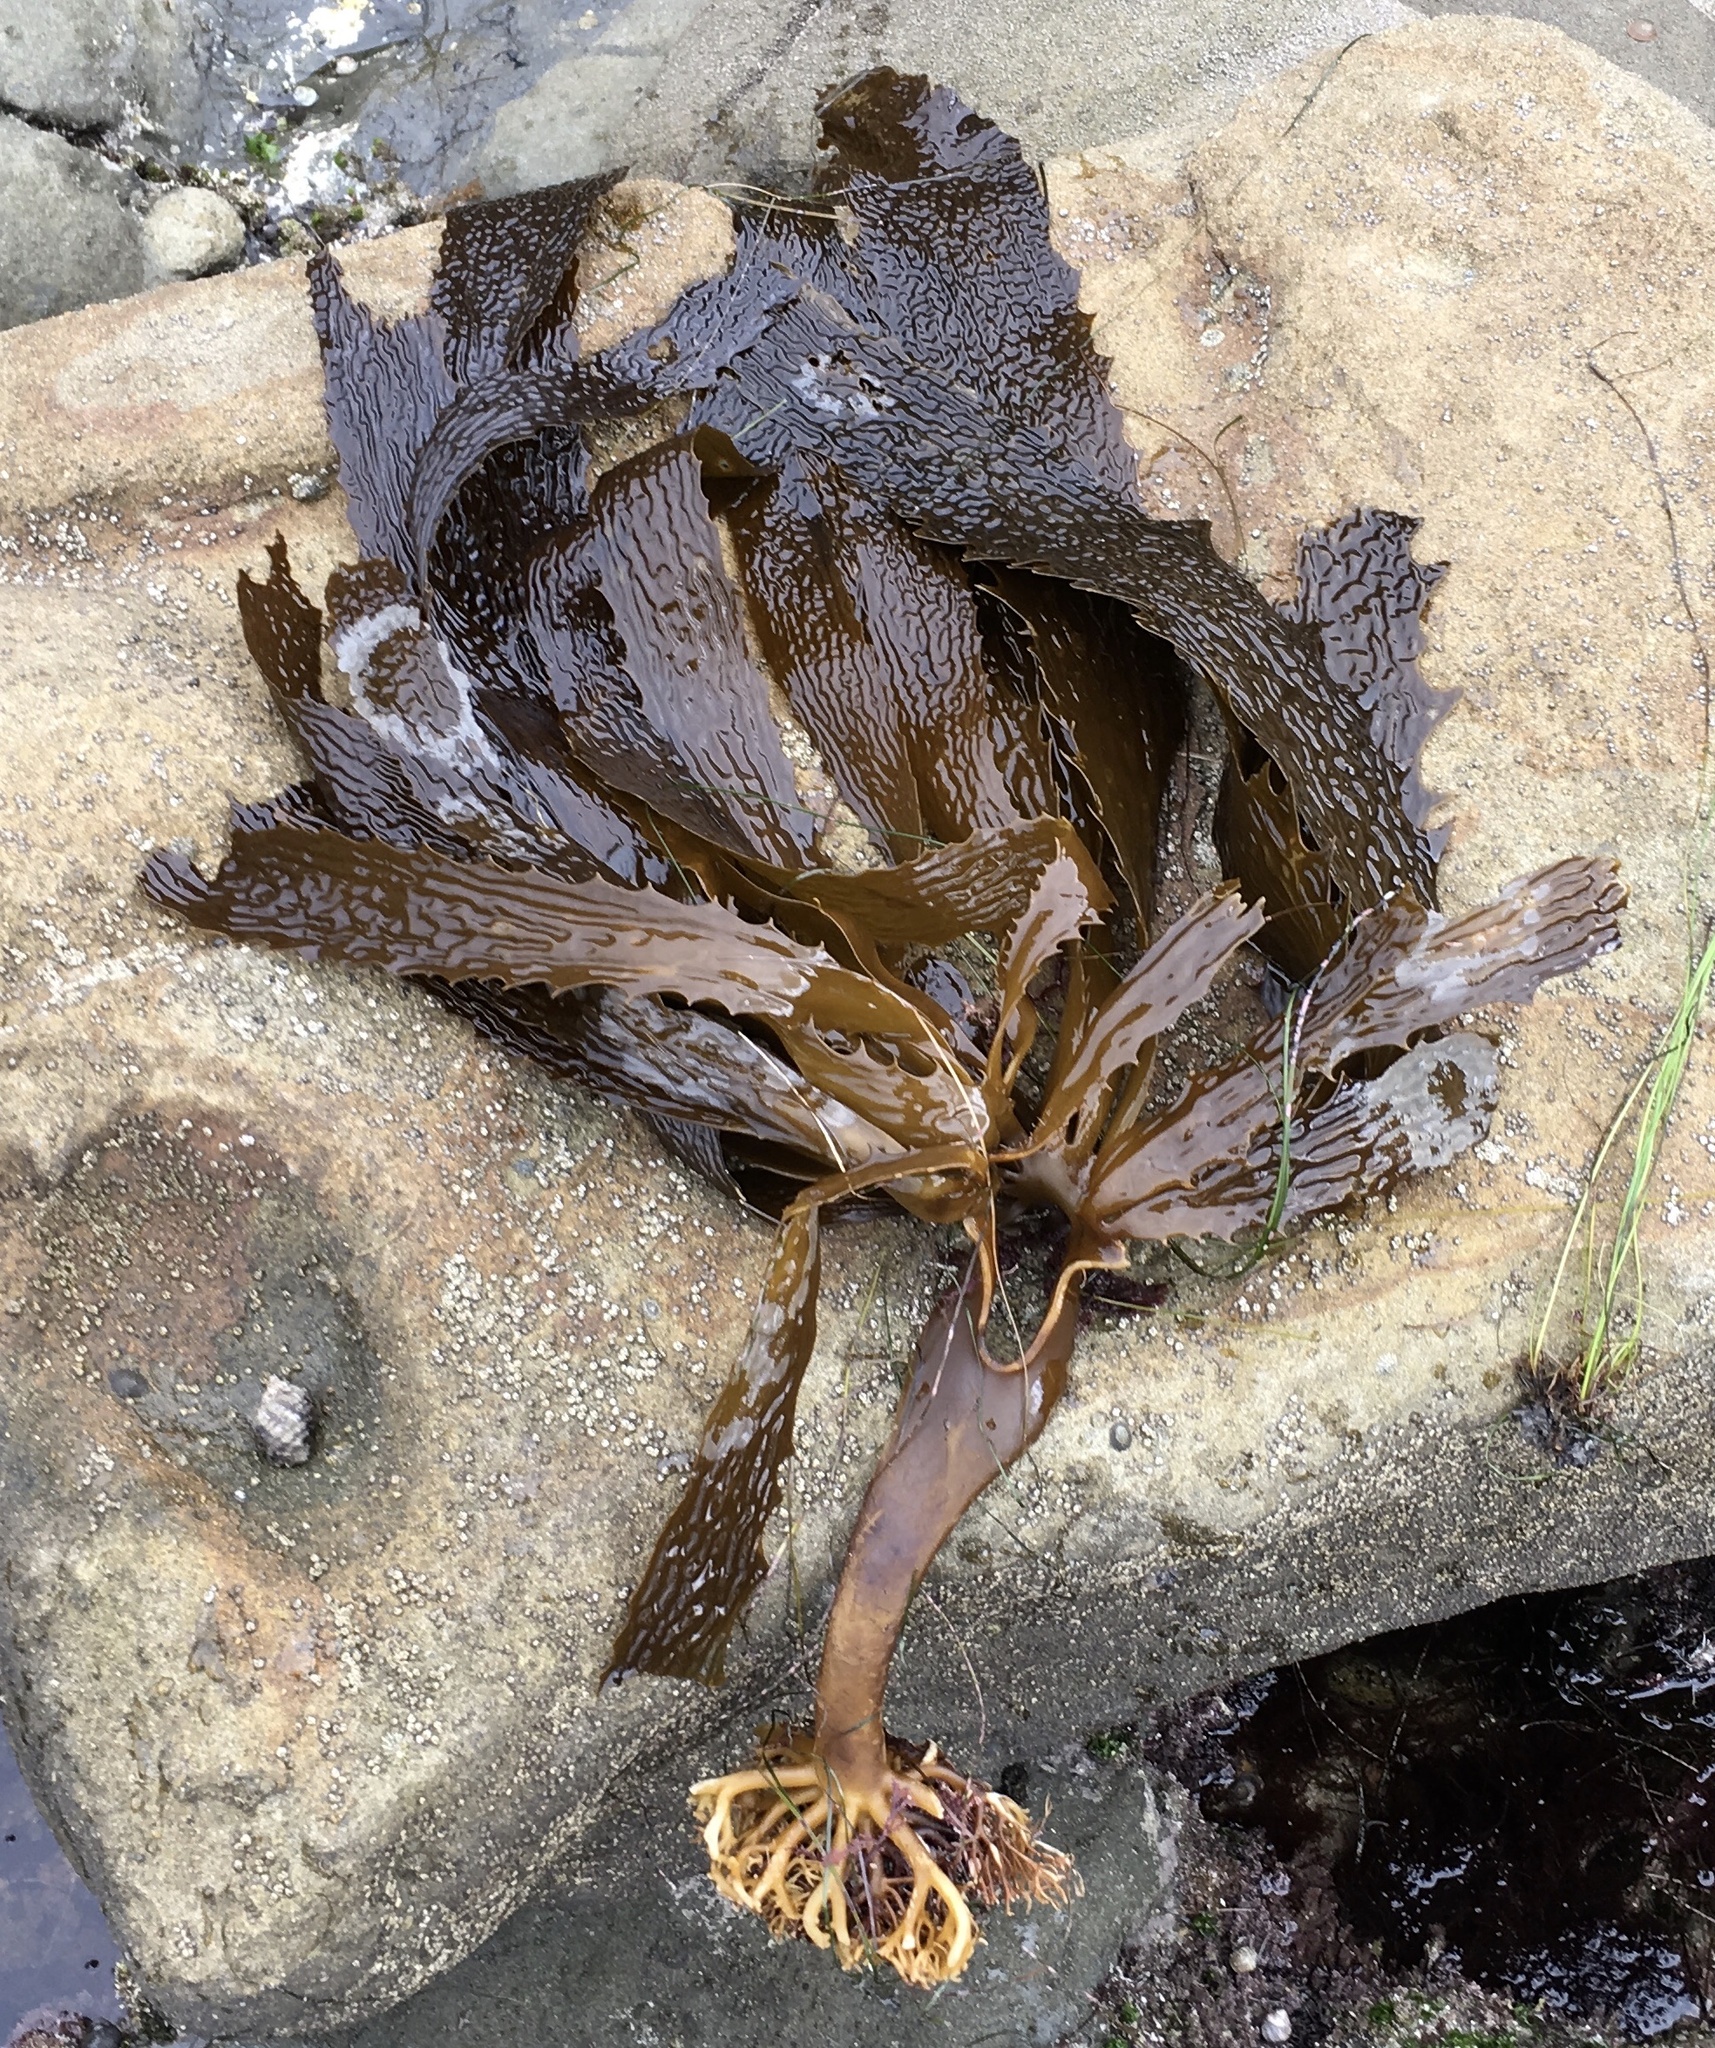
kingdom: Chromista
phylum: Ochrophyta
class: Phaeophyceae
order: Laminariales
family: Lessoniaceae
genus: Eisenia
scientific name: Eisenia arborea
